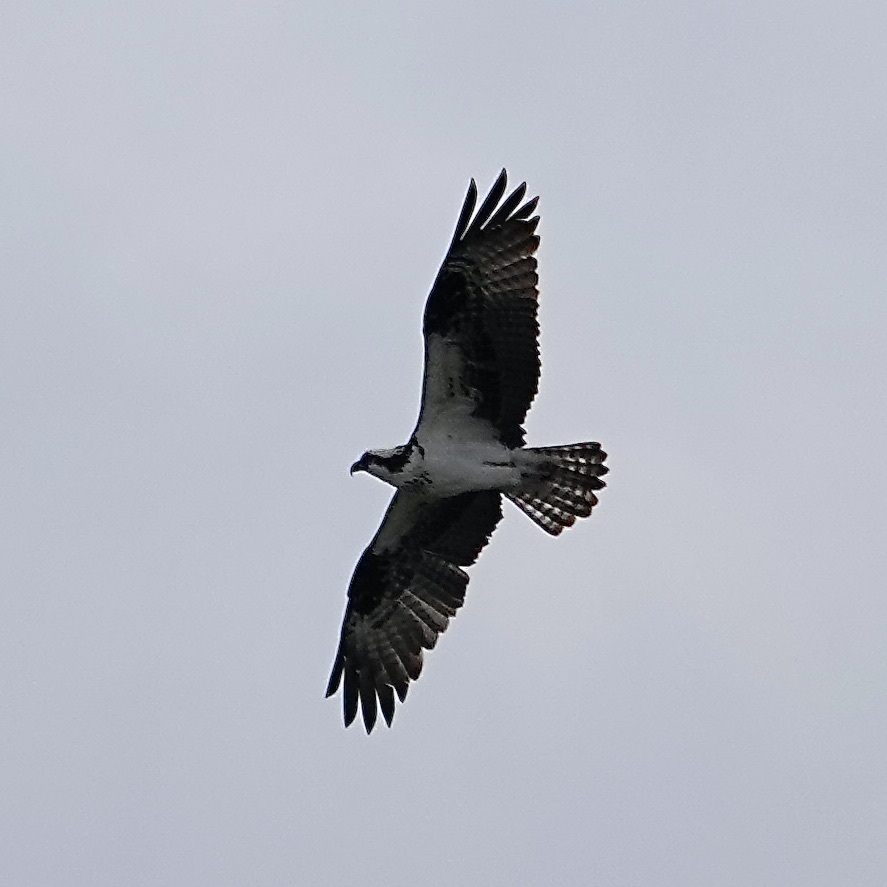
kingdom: Animalia
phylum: Chordata
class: Aves
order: Accipitriformes
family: Pandionidae
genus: Pandion
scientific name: Pandion haliaetus
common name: Osprey
